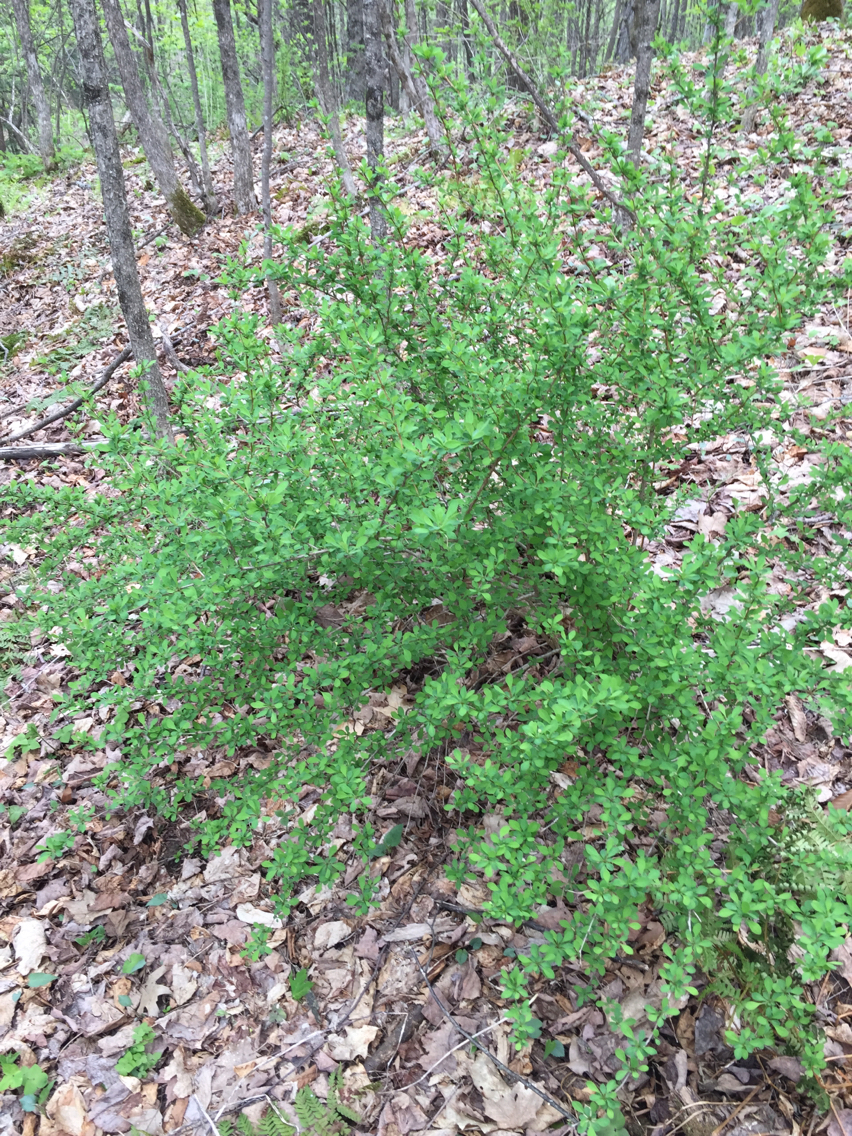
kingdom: Plantae
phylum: Tracheophyta
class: Magnoliopsida
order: Ranunculales
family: Berberidaceae
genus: Berberis
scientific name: Berberis thunbergii
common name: Japanese barberry
